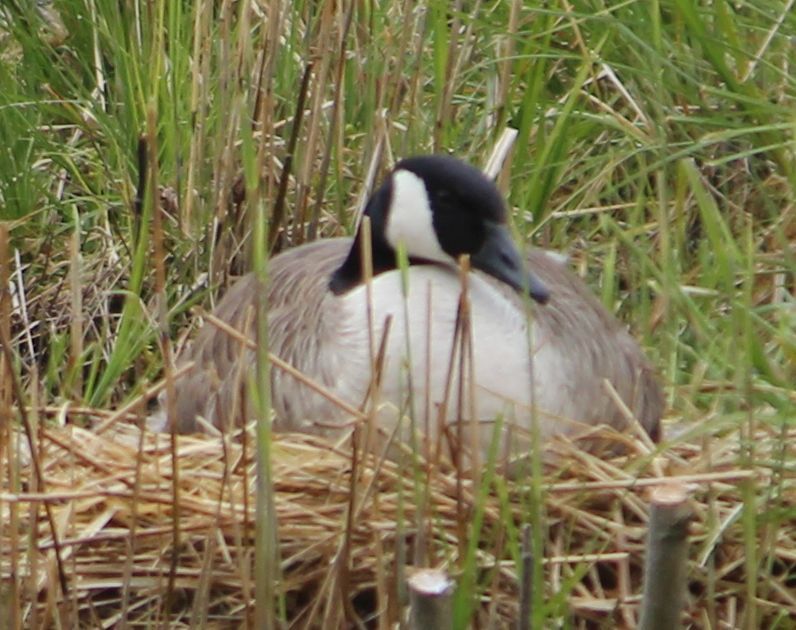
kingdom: Animalia
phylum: Chordata
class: Aves
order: Anseriformes
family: Anatidae
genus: Branta
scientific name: Branta canadensis
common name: Canada goose
